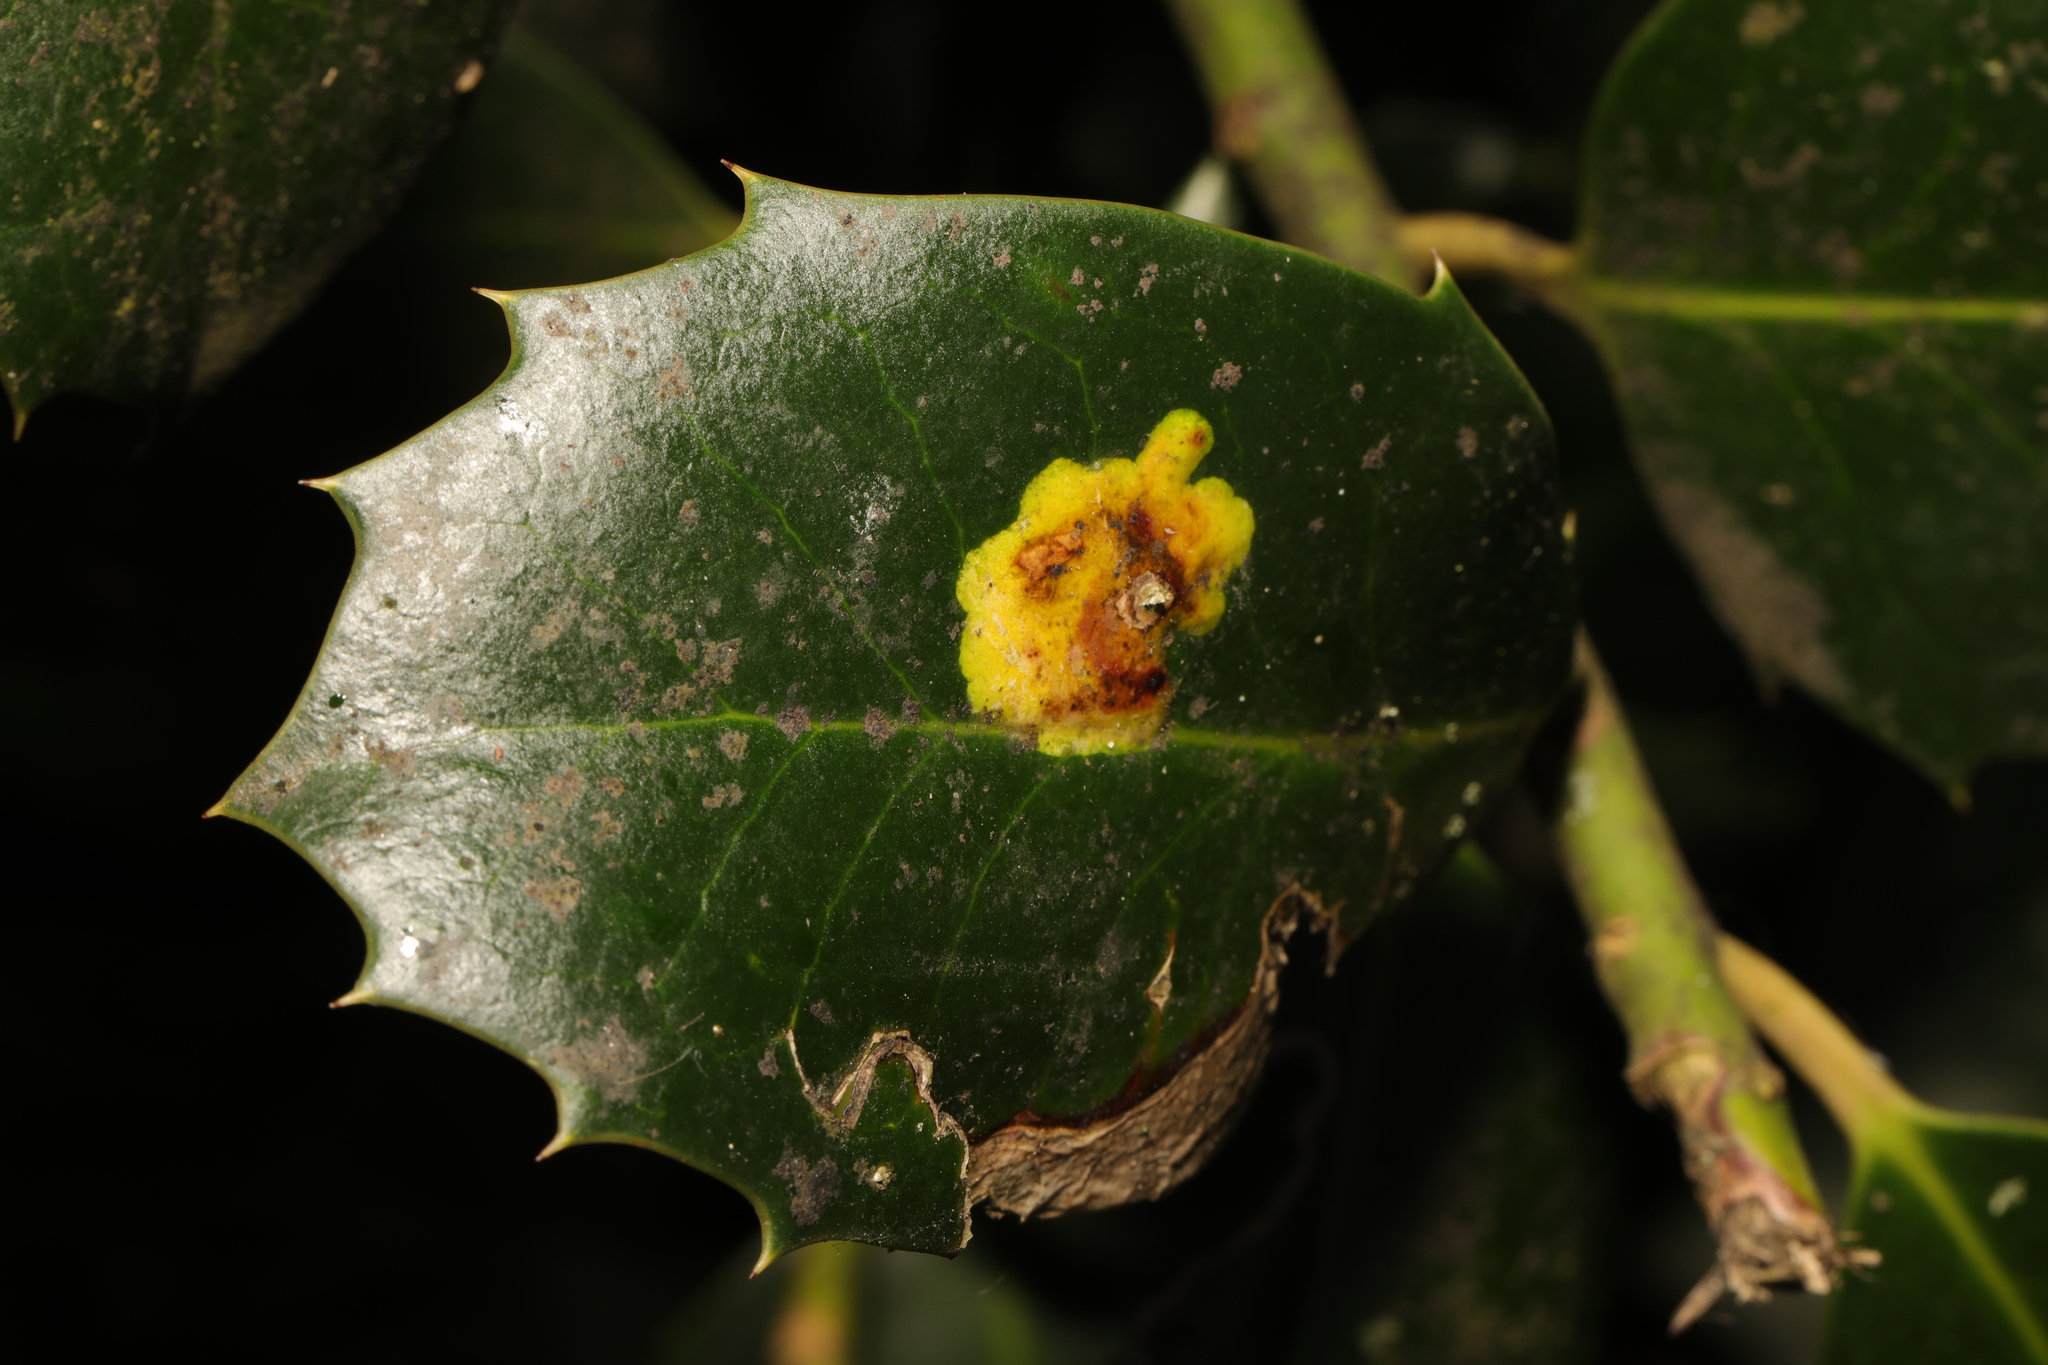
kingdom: Animalia
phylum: Arthropoda
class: Insecta
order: Diptera
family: Agromyzidae
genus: Phytomyza
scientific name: Phytomyza ilicis
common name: Holly leafminer
